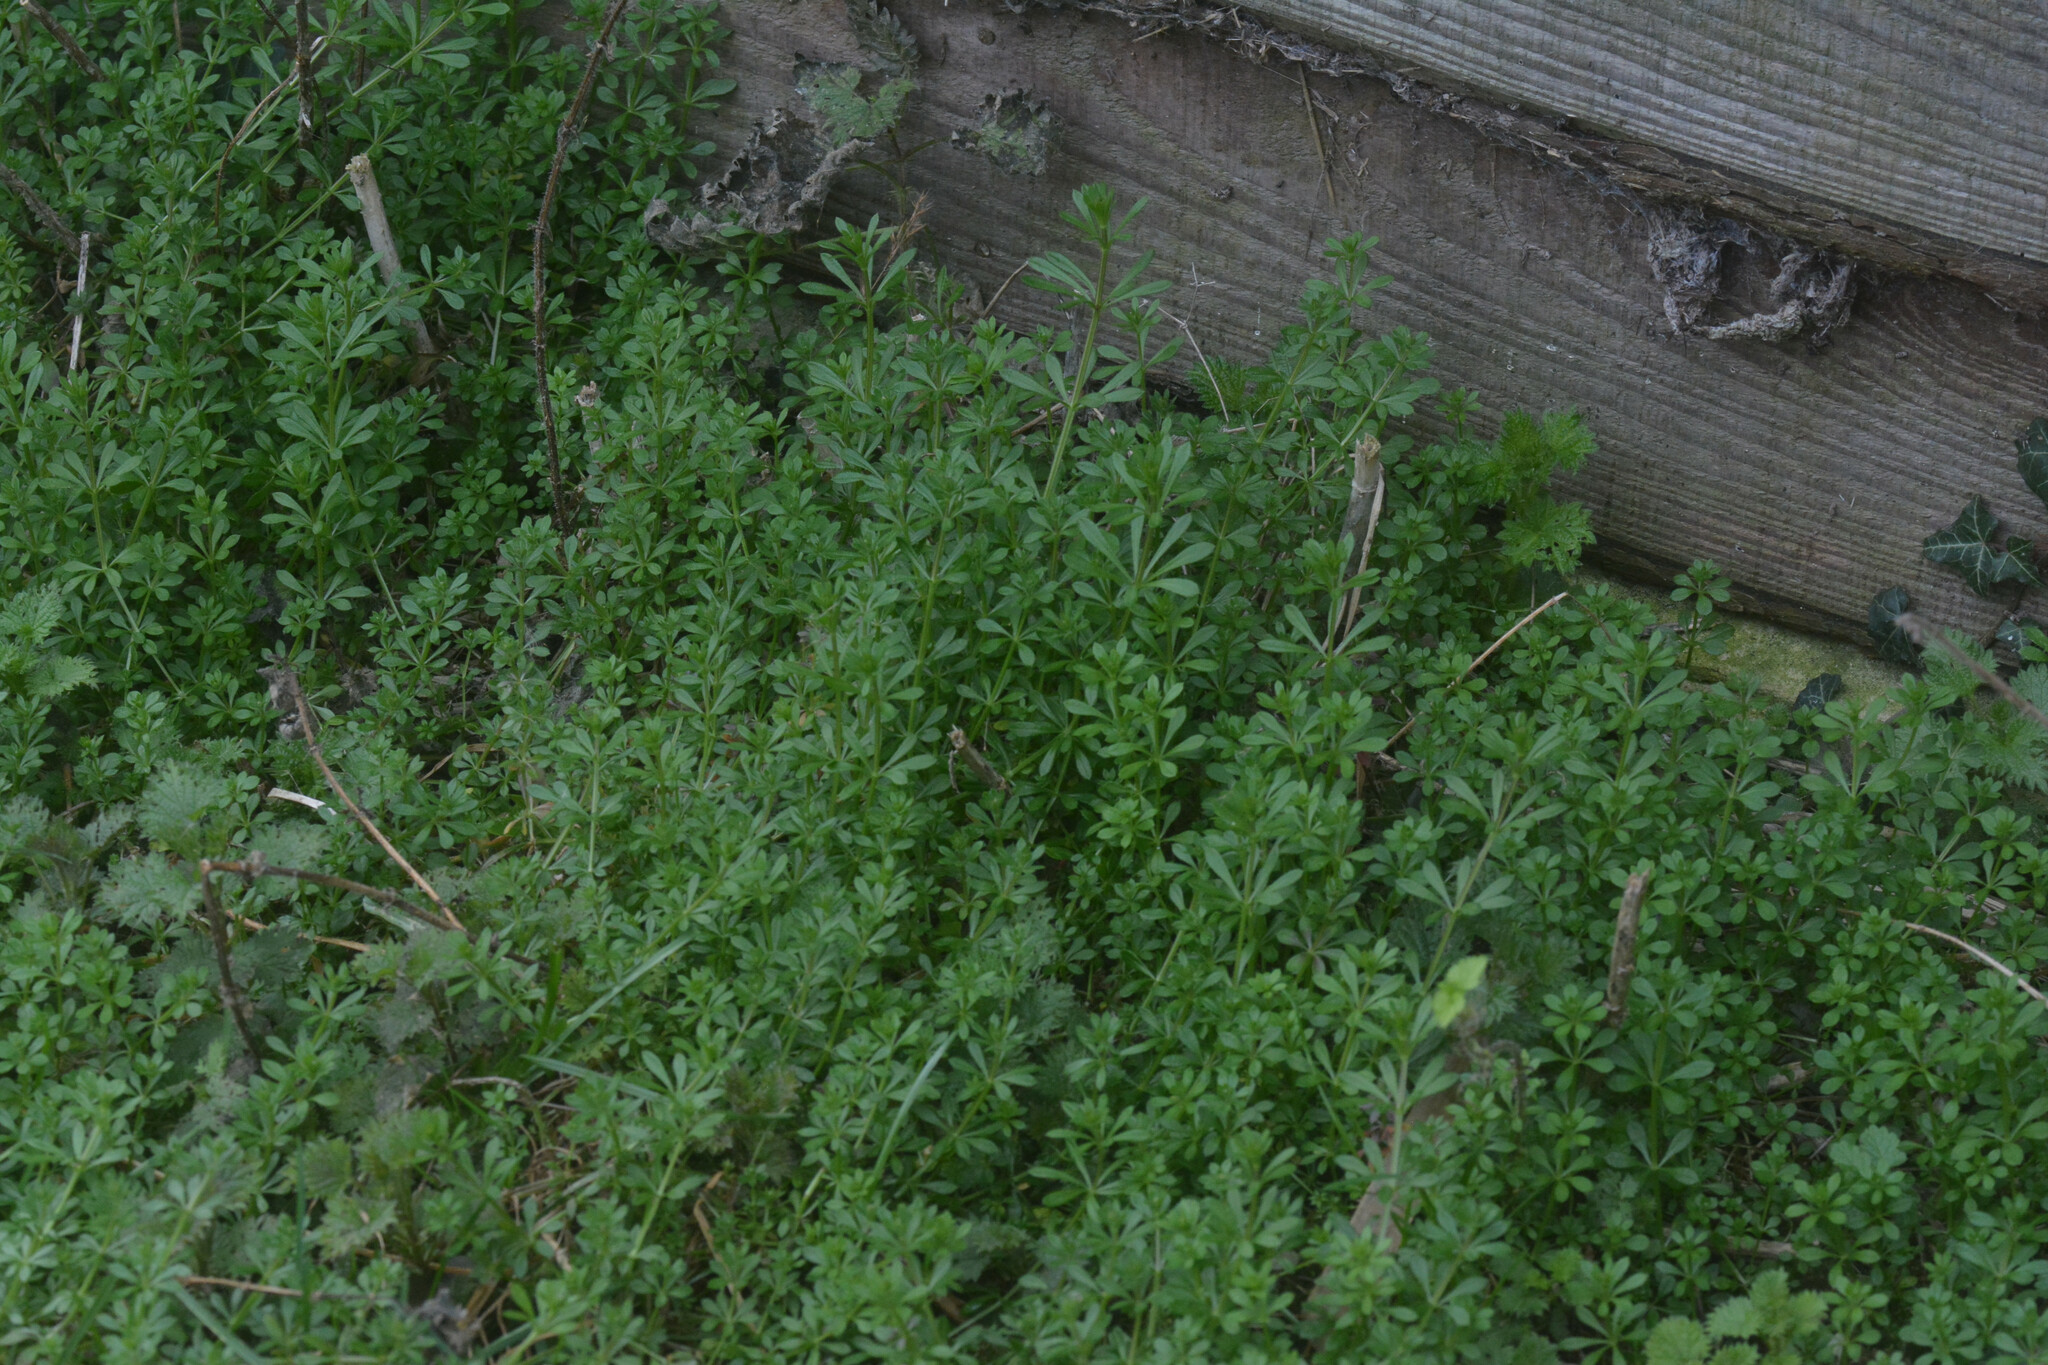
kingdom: Plantae
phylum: Tracheophyta
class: Magnoliopsida
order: Gentianales
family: Rubiaceae
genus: Galium
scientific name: Galium aparine
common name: Cleavers
